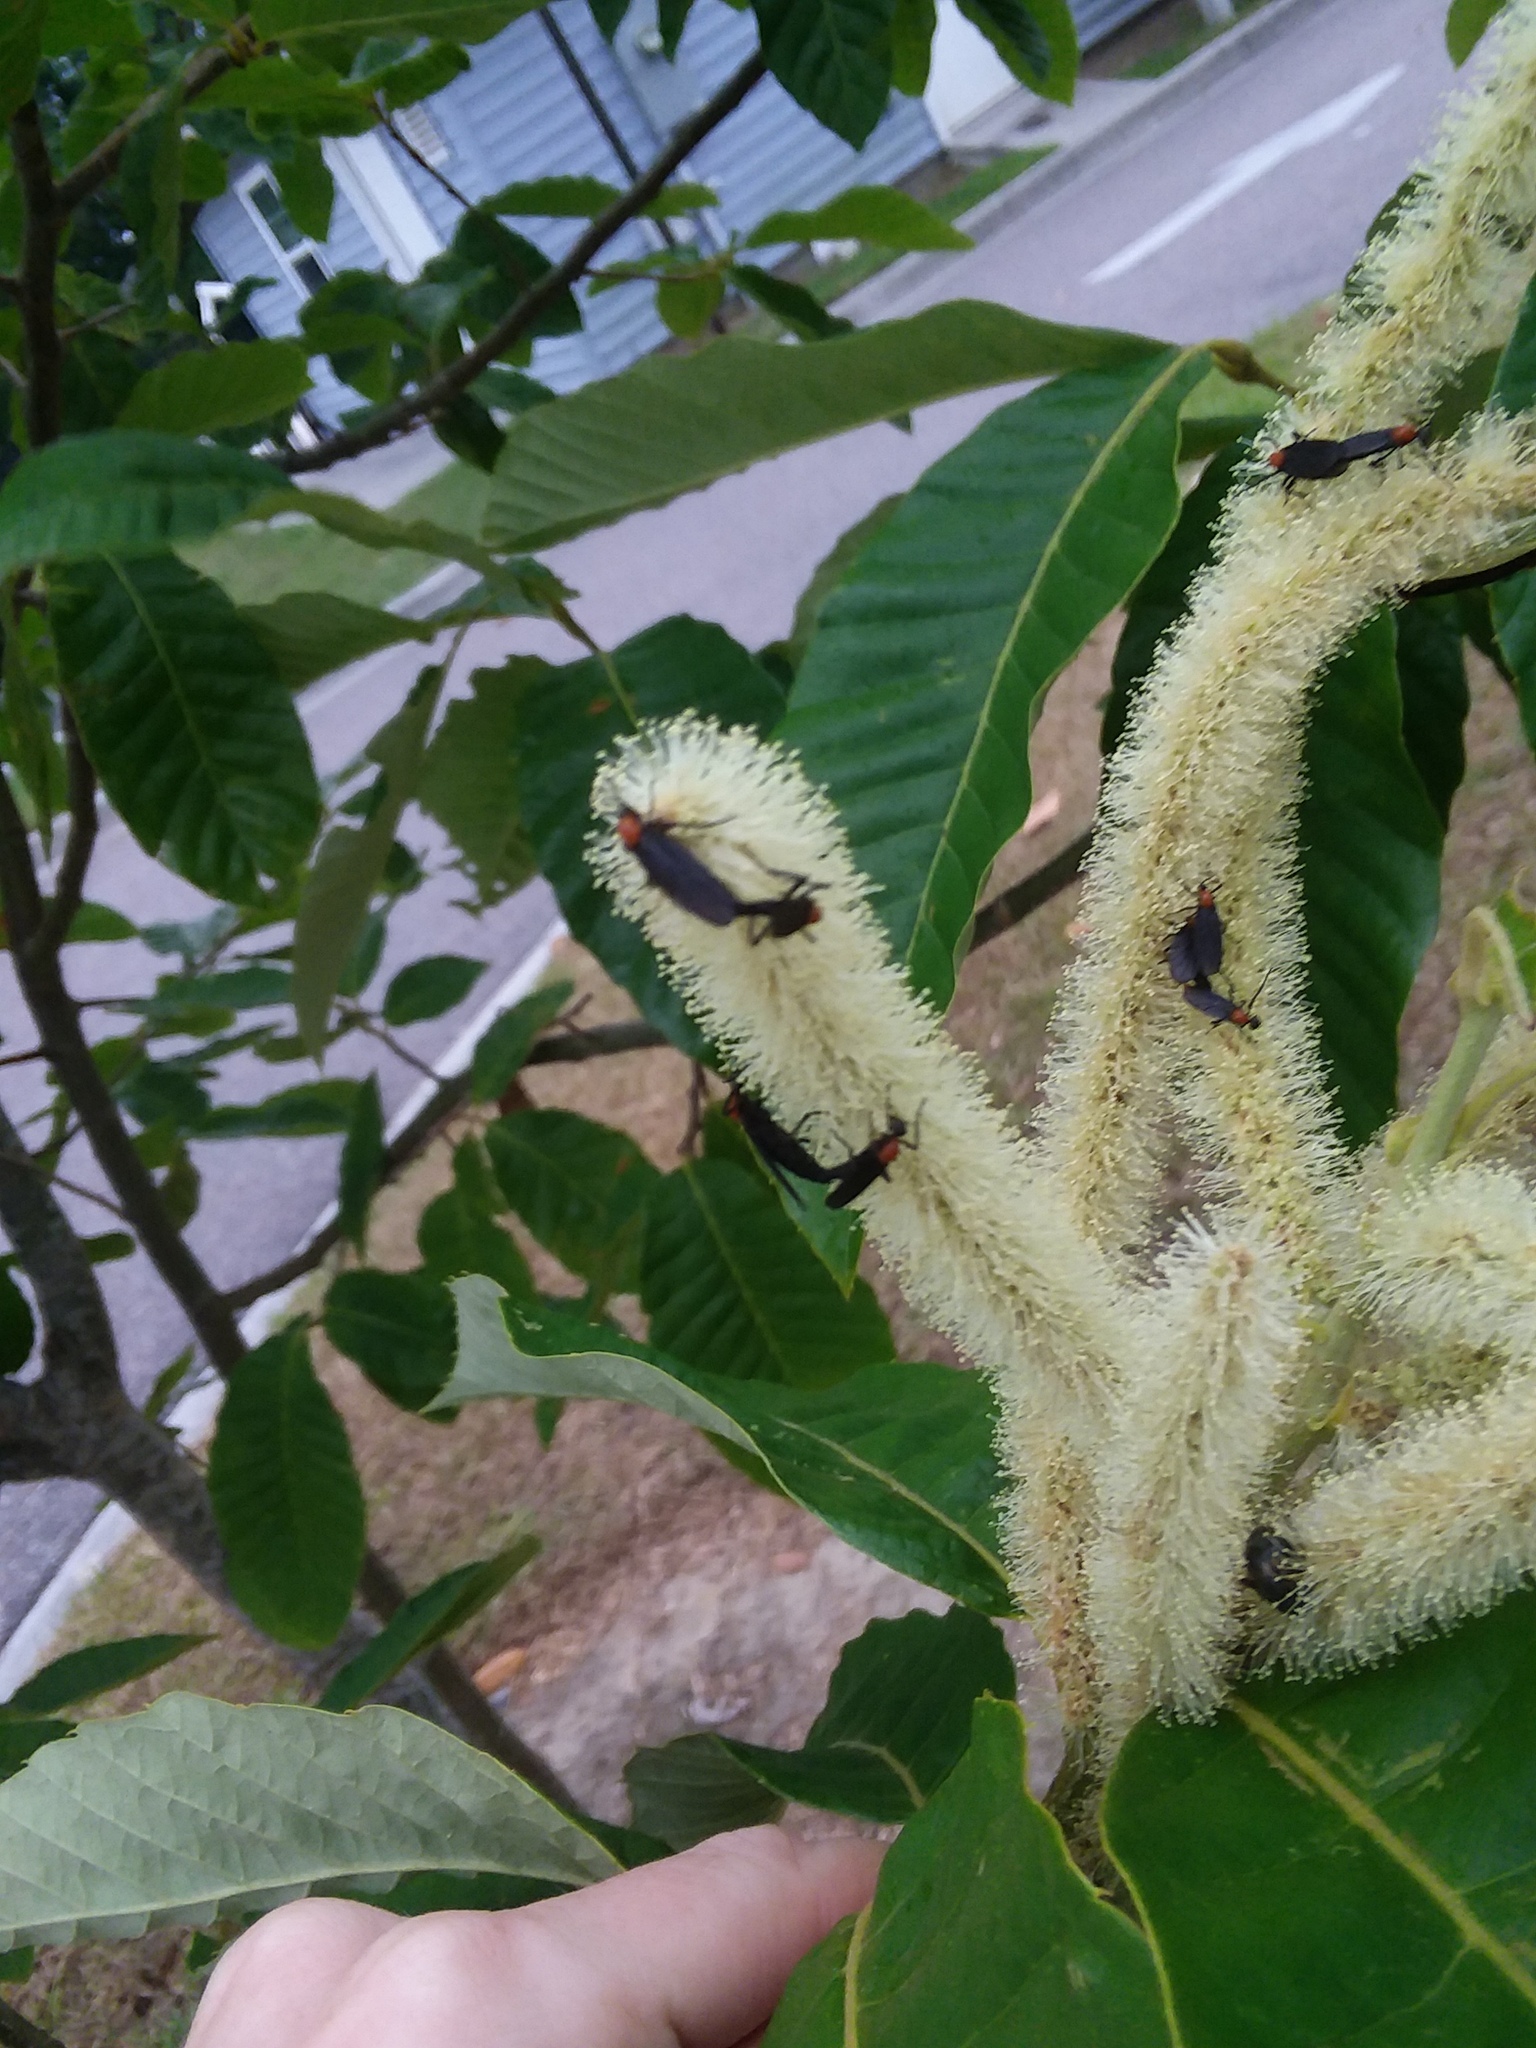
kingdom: Animalia
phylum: Arthropoda
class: Insecta
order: Diptera
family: Bibionidae
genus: Plecia
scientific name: Plecia nearctica
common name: March fly
